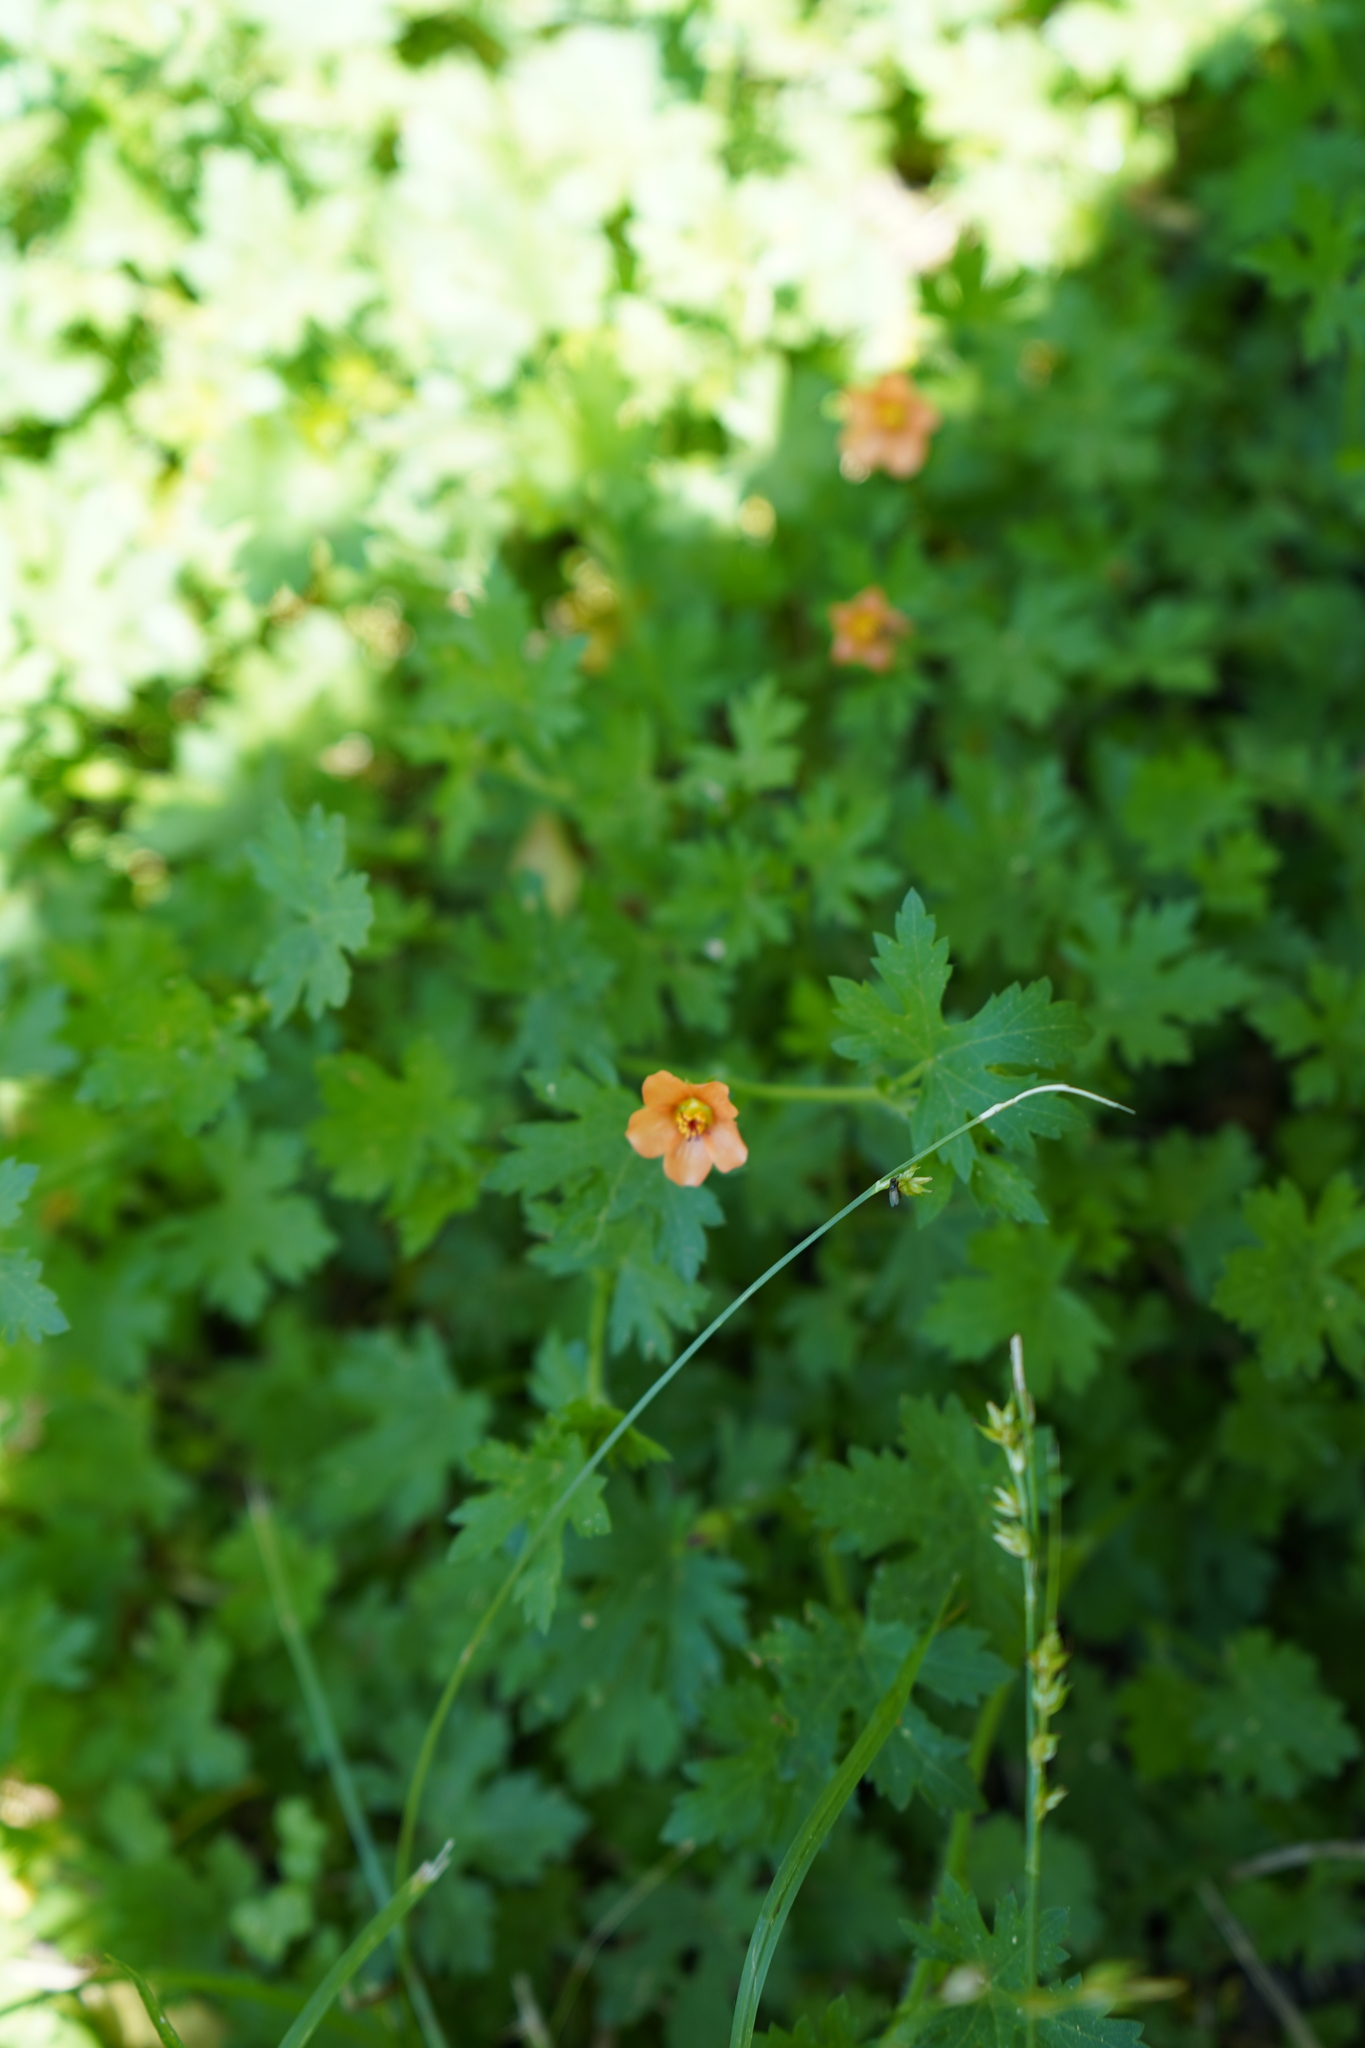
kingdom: Plantae
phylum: Tracheophyta
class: Magnoliopsida
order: Malvales
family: Malvaceae
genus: Modiola
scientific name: Modiola caroliniana
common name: Carolina bristlemallow
